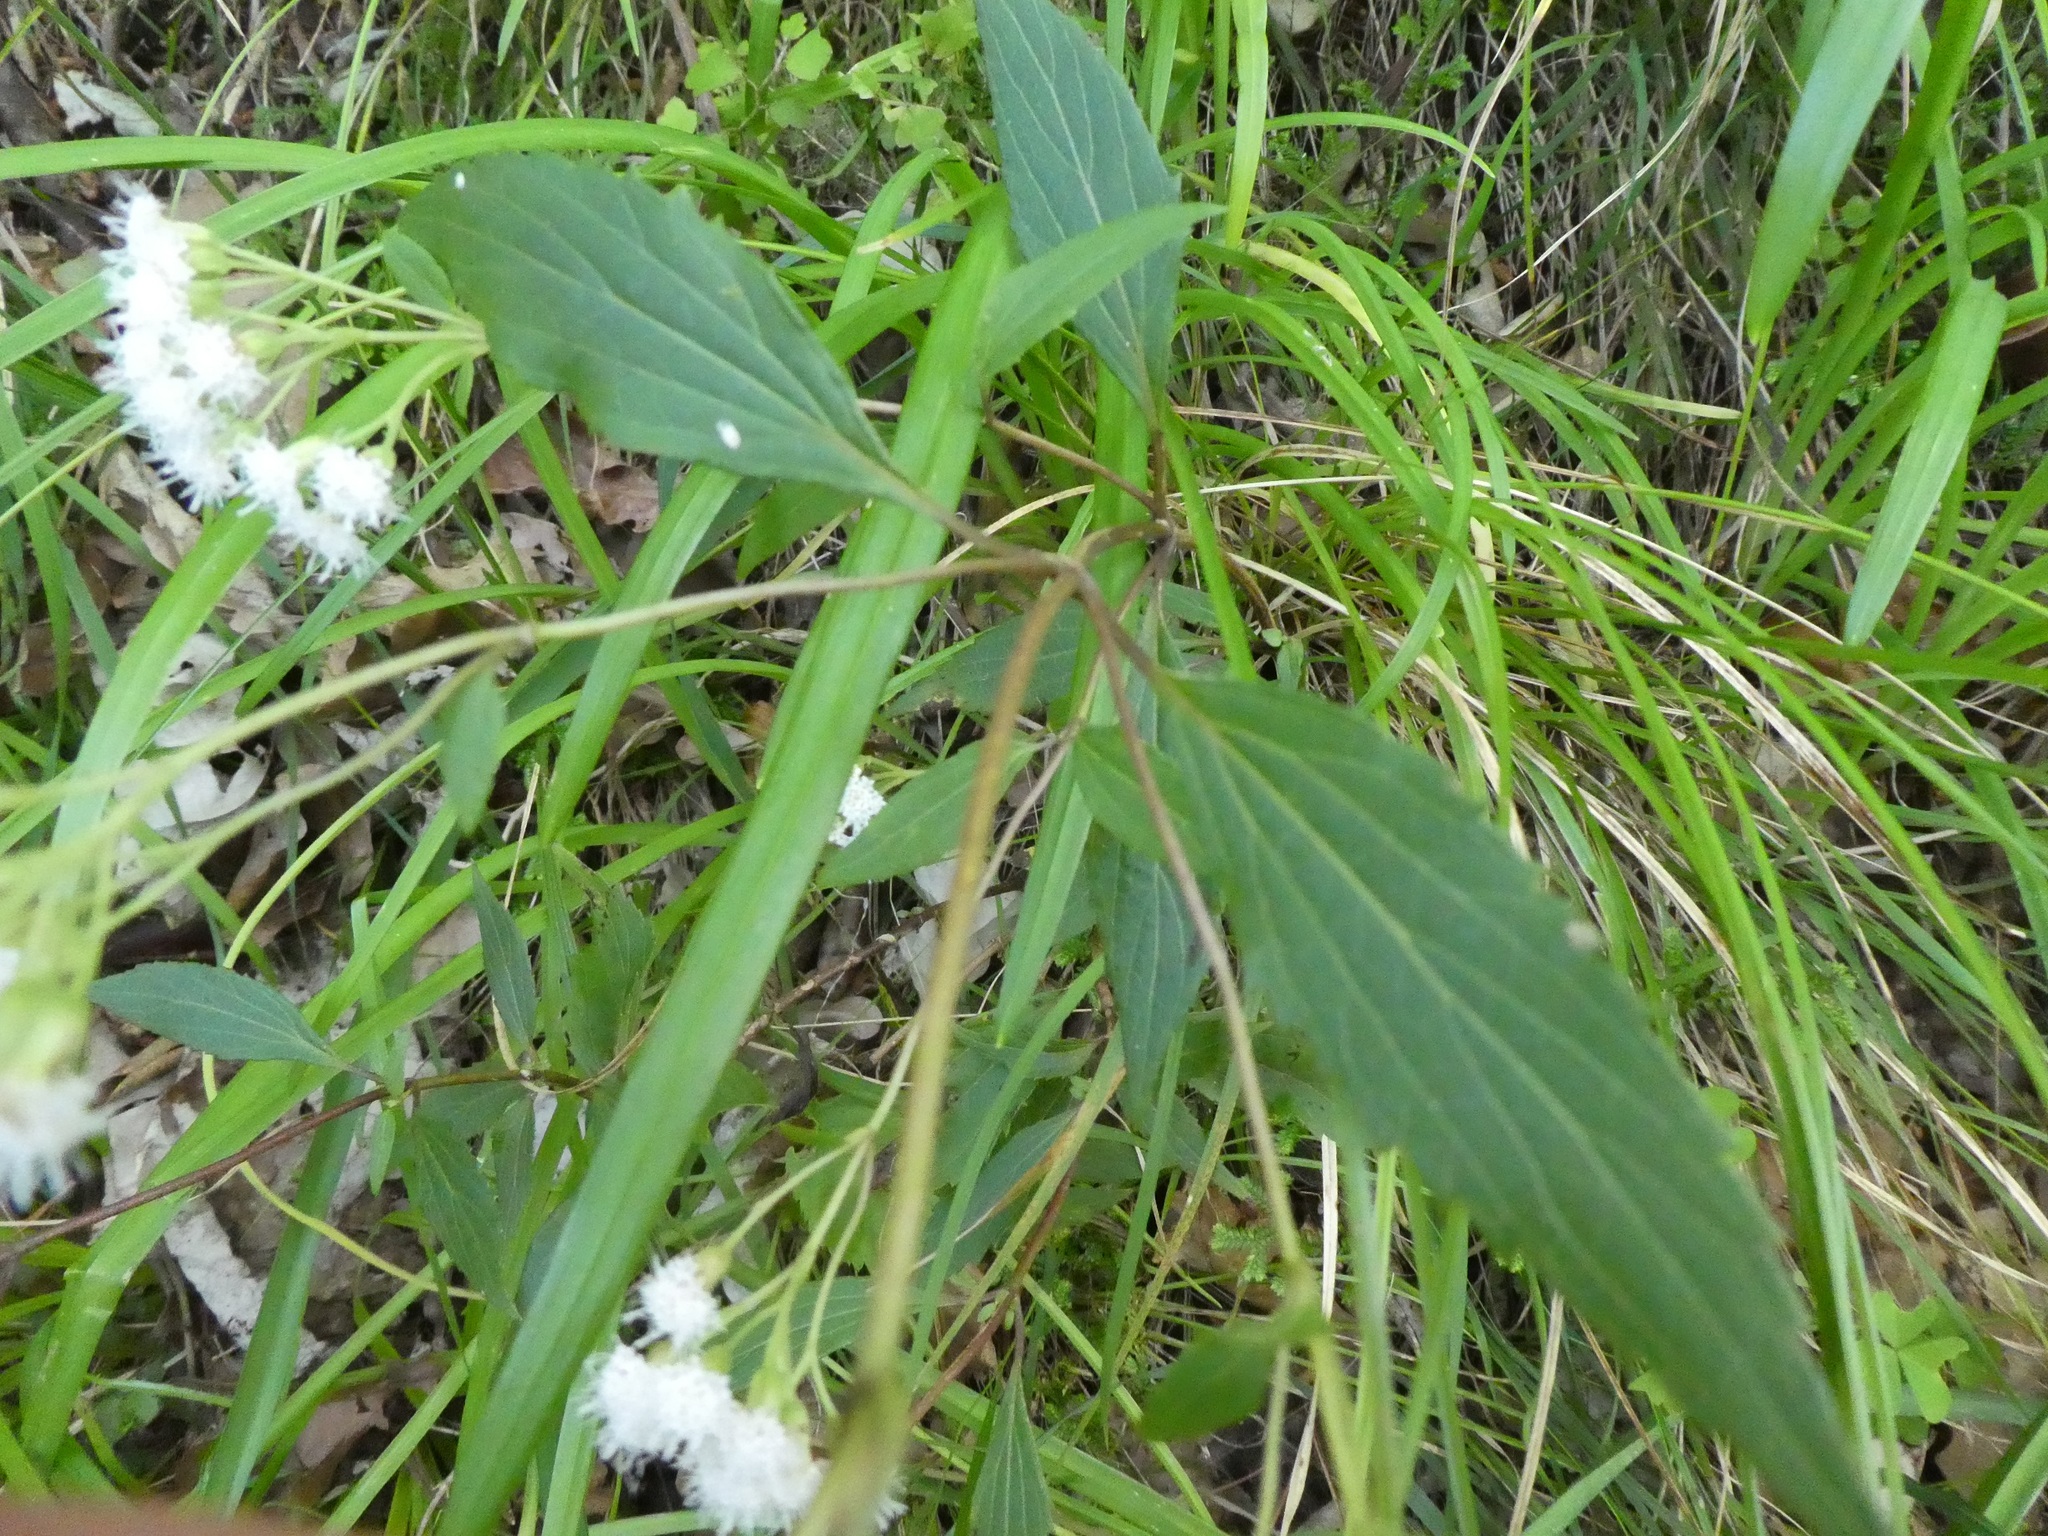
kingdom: Plantae
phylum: Tracheophyta
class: Magnoliopsida
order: Asterales
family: Asteraceae
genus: Ageratina
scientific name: Ageratina riparia
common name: Creeping croftonweed
